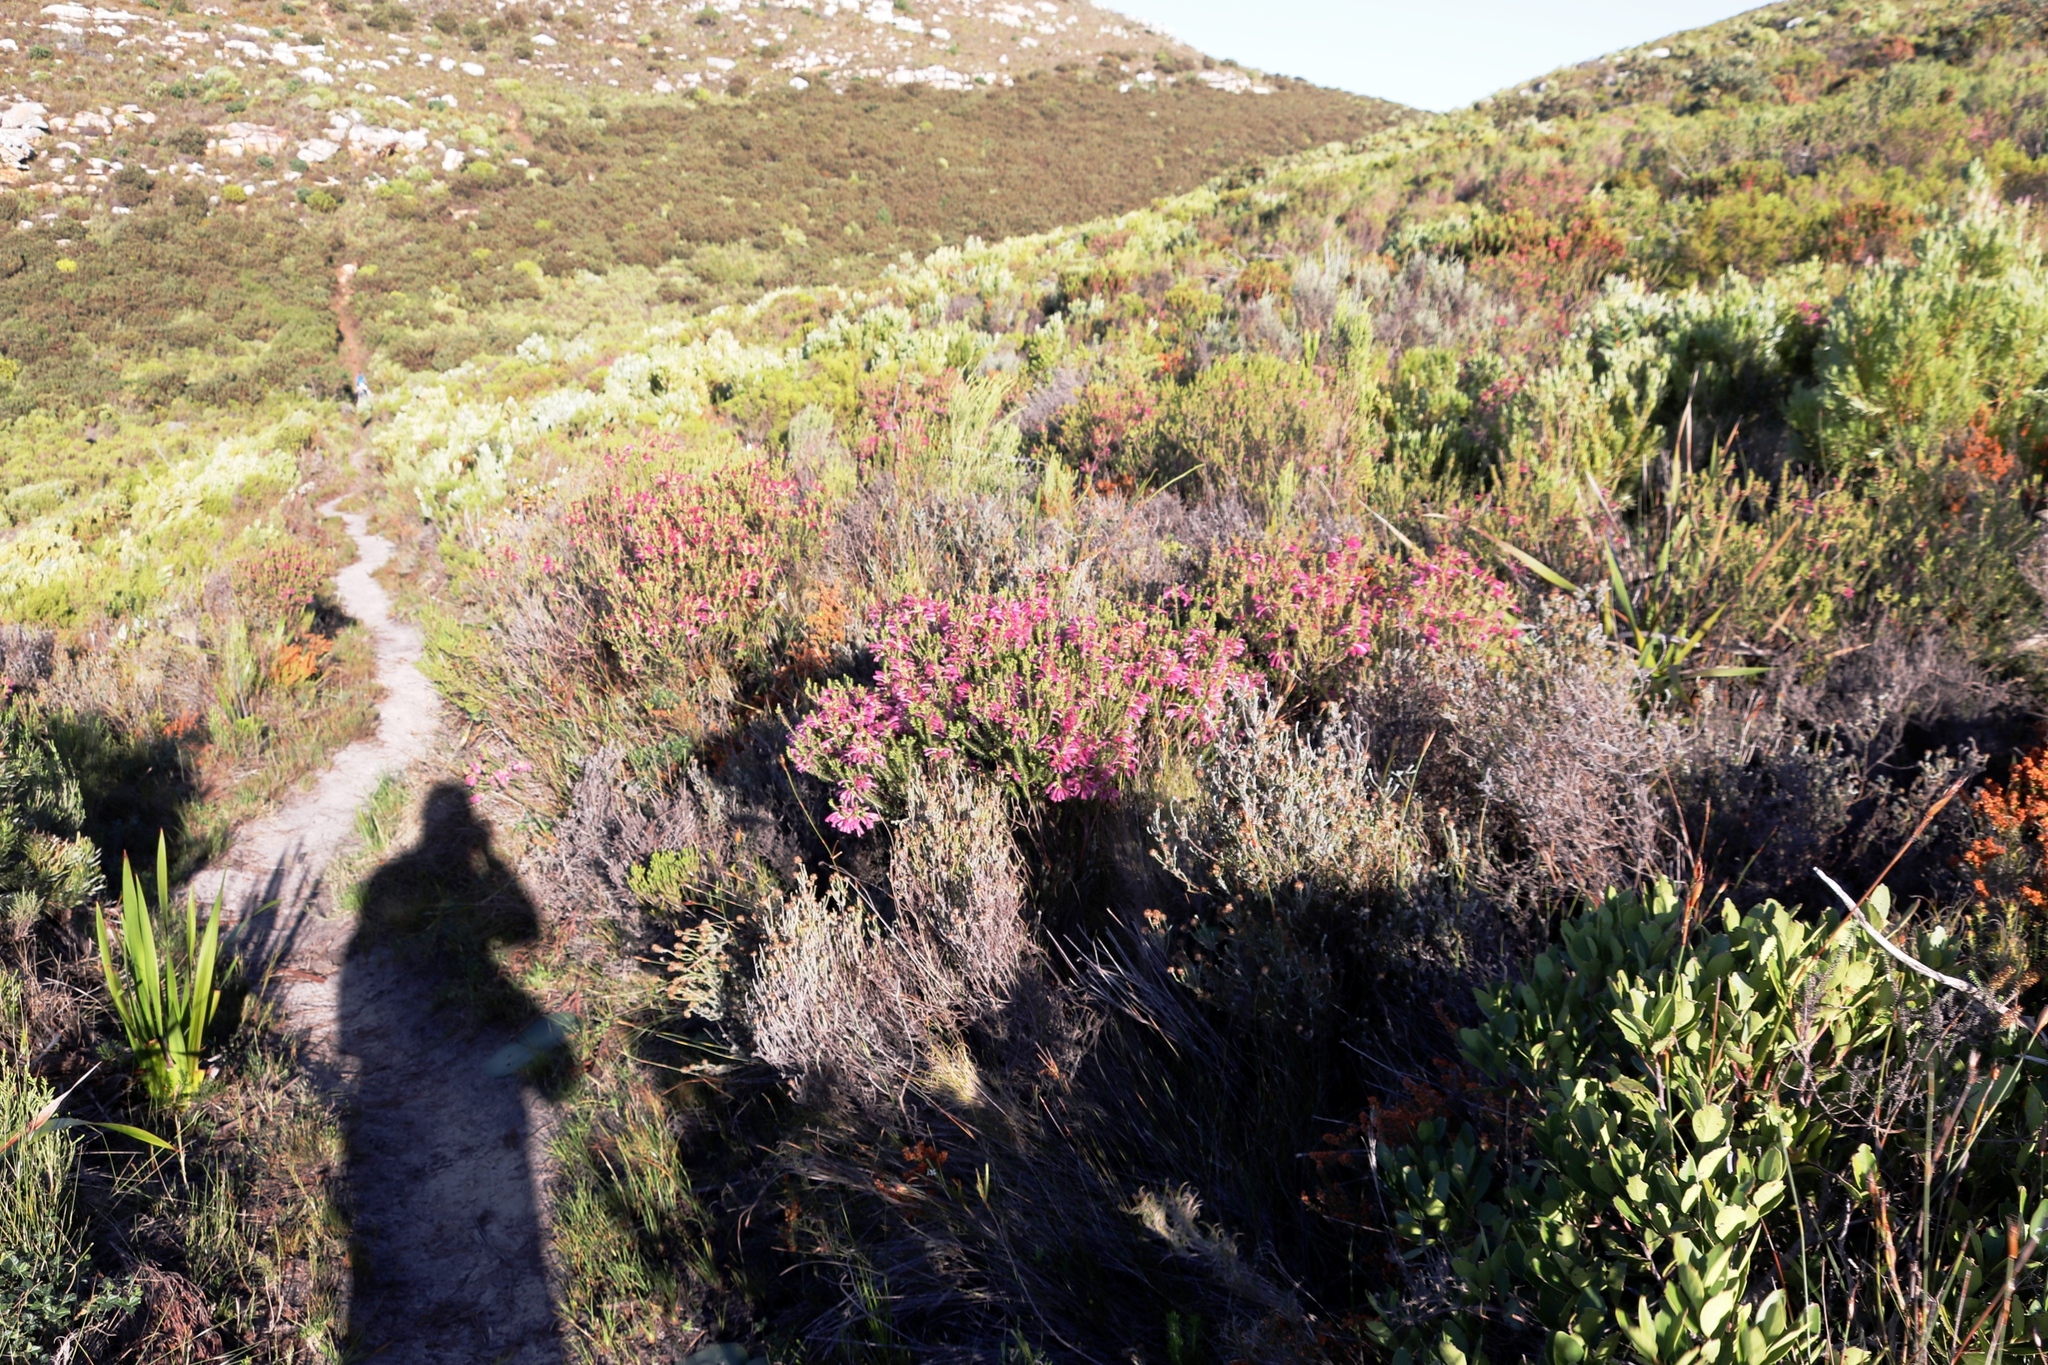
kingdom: Plantae
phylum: Tracheophyta
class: Magnoliopsida
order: Ericales
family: Ericaceae
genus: Erica
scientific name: Erica abietina
